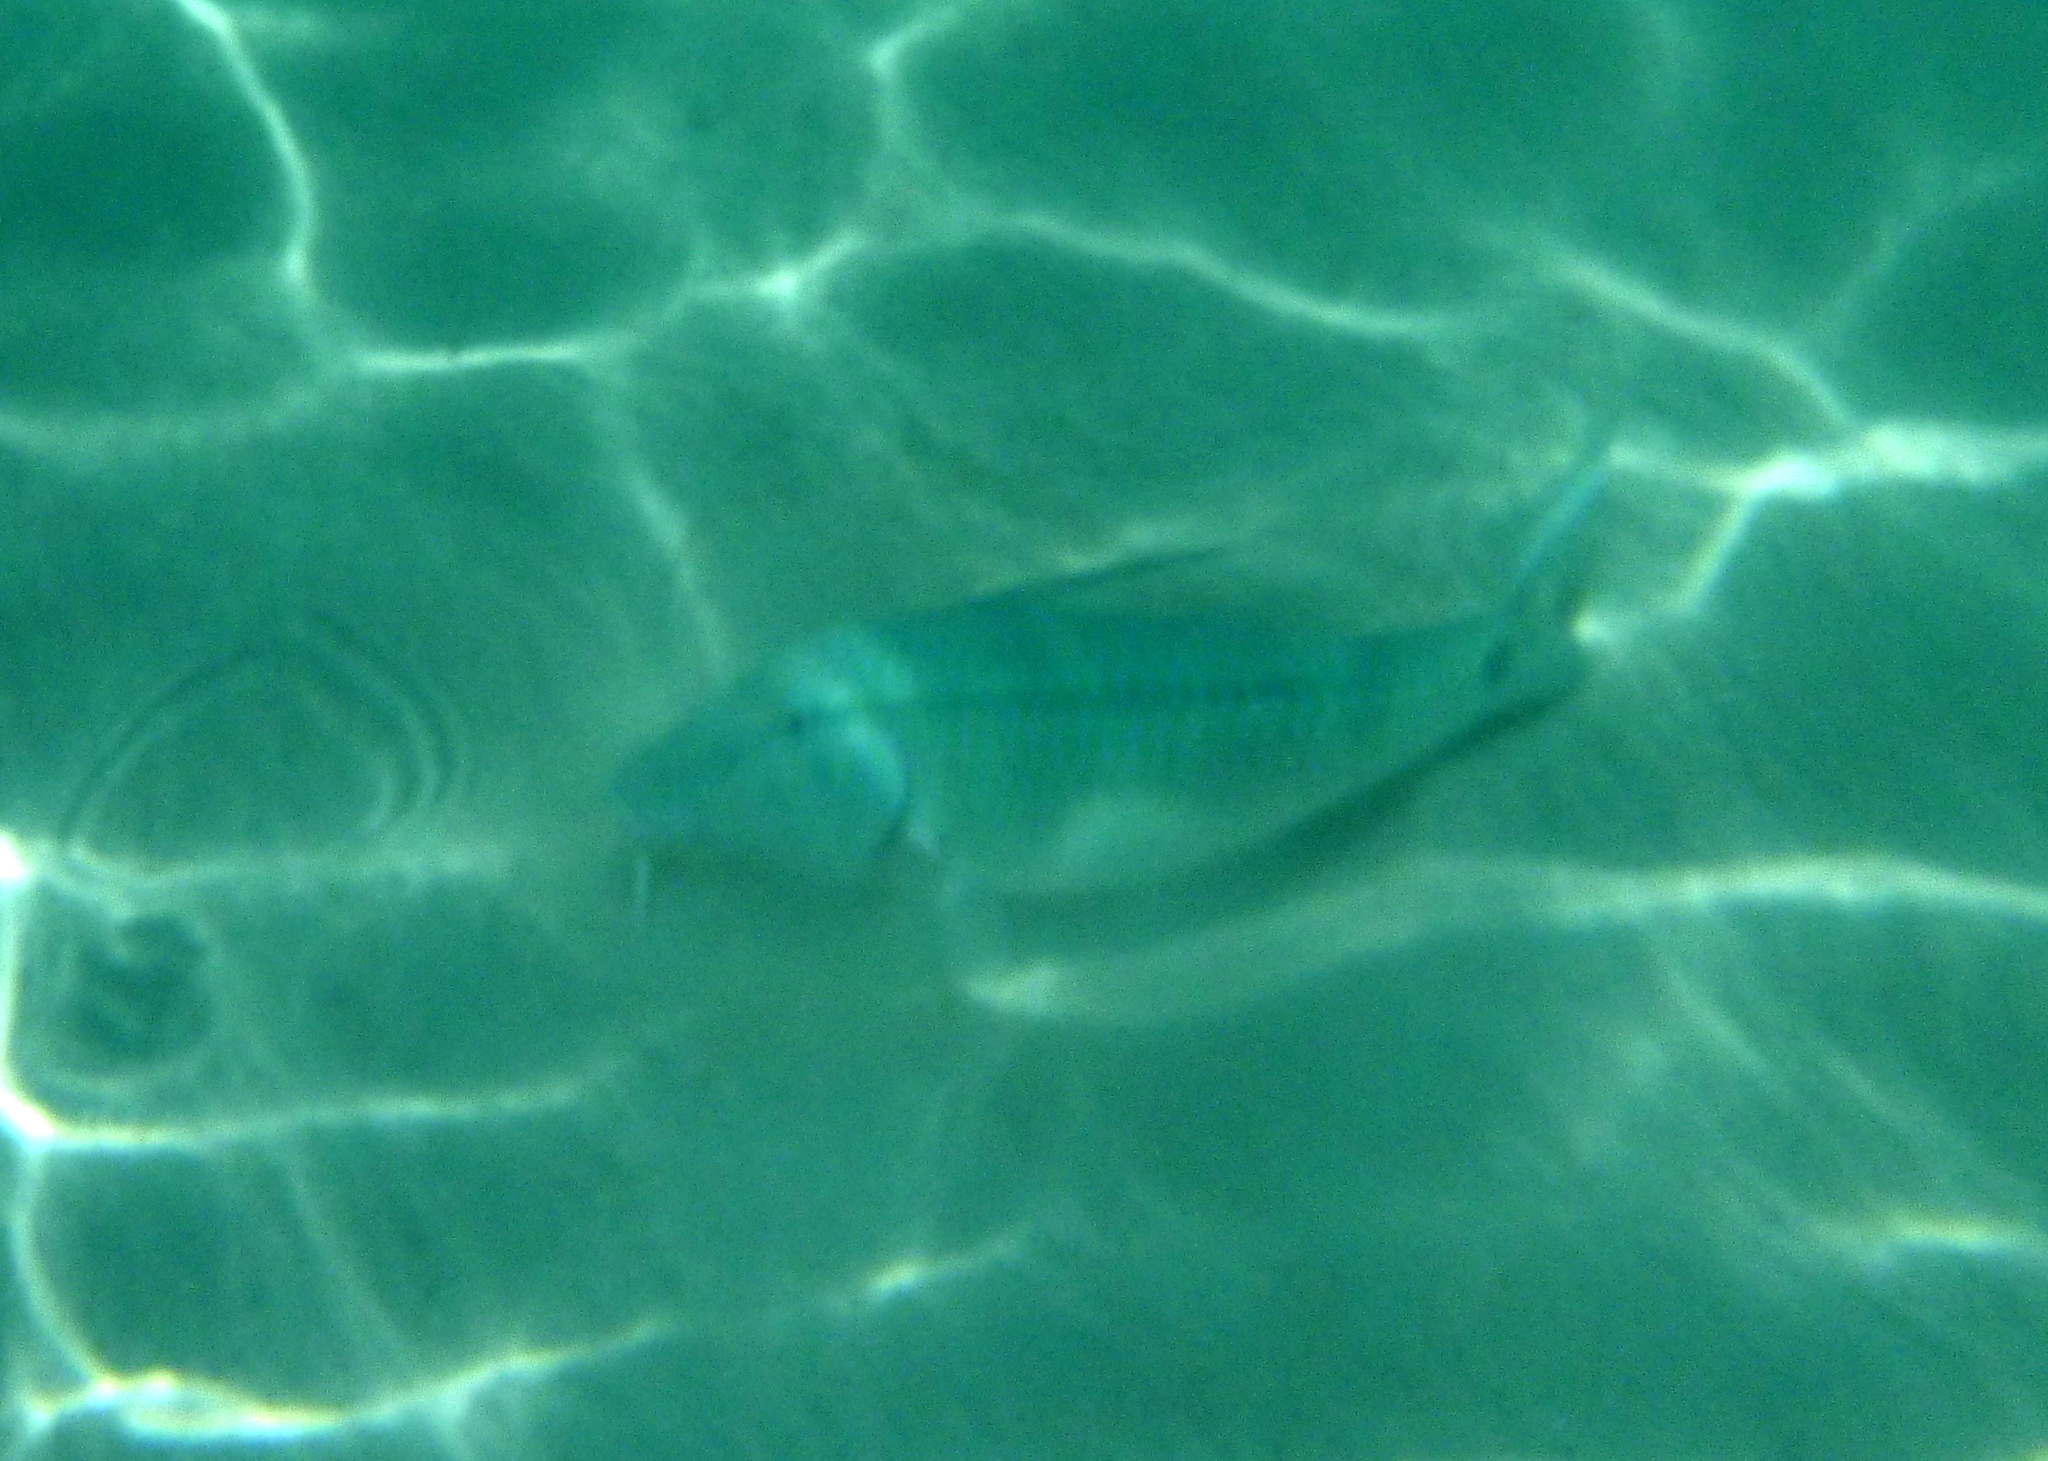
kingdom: Animalia
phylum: Chordata
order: Perciformes
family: Mullidae
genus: Parupeneus
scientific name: Parupeneus barberinus
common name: Dash-and-dot goatfish
